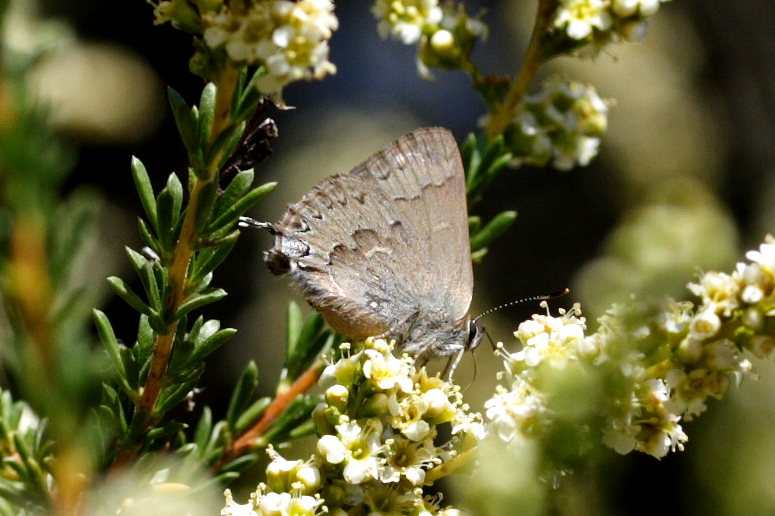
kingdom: Animalia
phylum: Arthropoda
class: Insecta
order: Lepidoptera
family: Lycaenidae
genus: Strymon
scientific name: Strymon saepium
